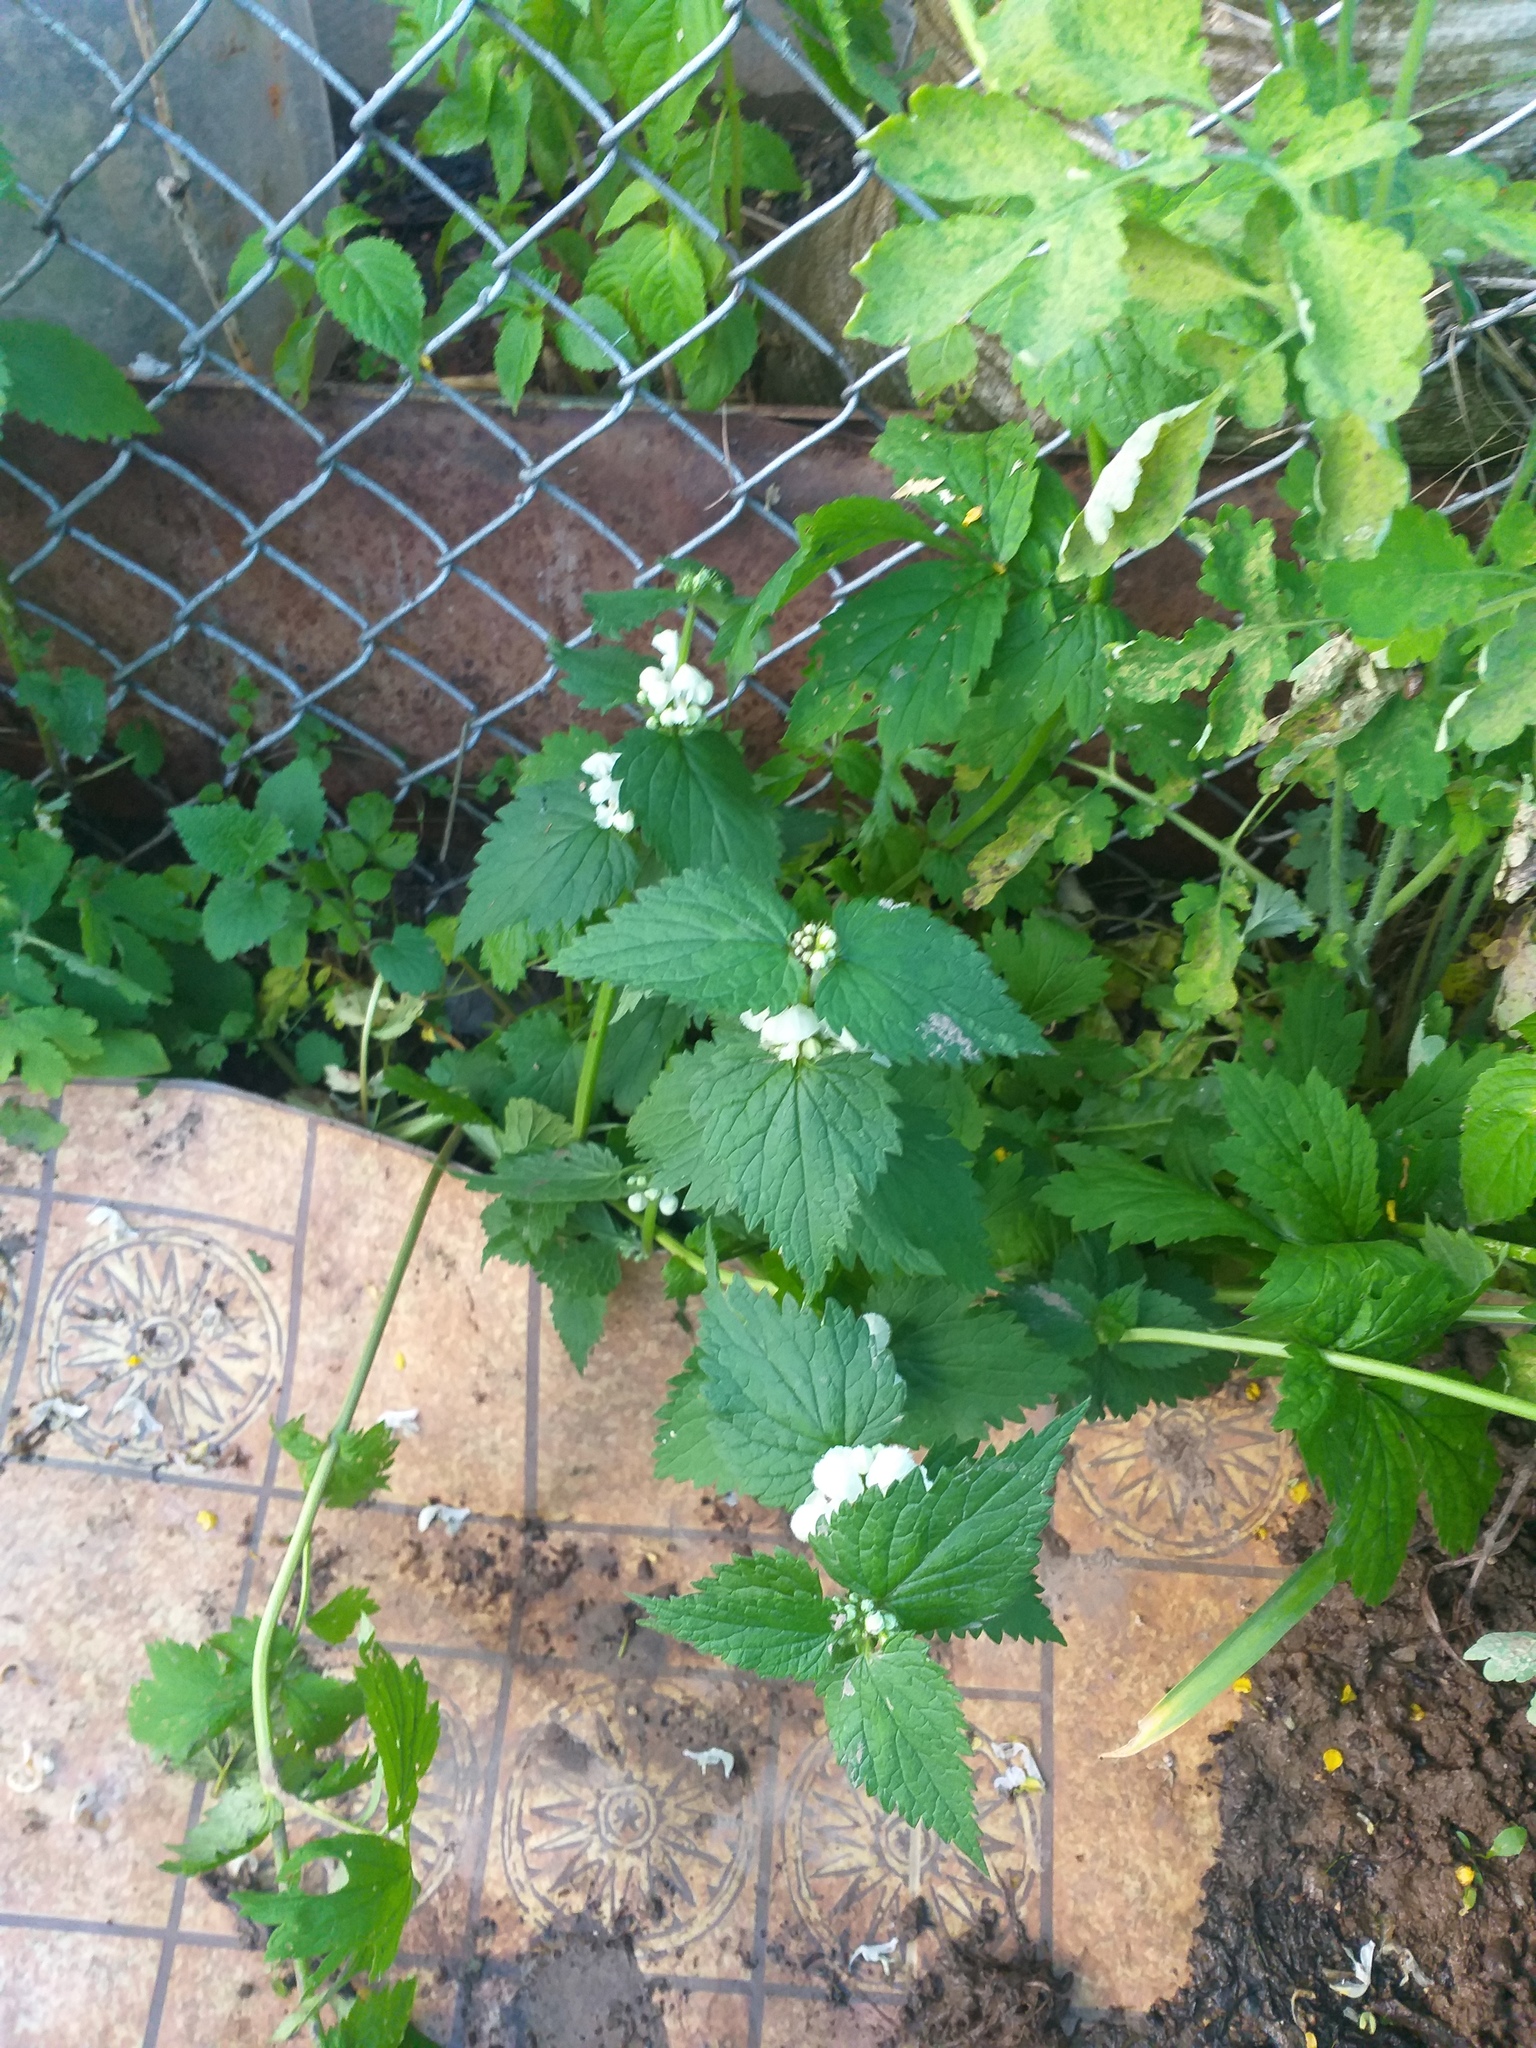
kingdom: Plantae
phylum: Tracheophyta
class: Magnoliopsida
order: Lamiales
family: Lamiaceae
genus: Lamium
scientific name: Lamium album
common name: White dead-nettle
